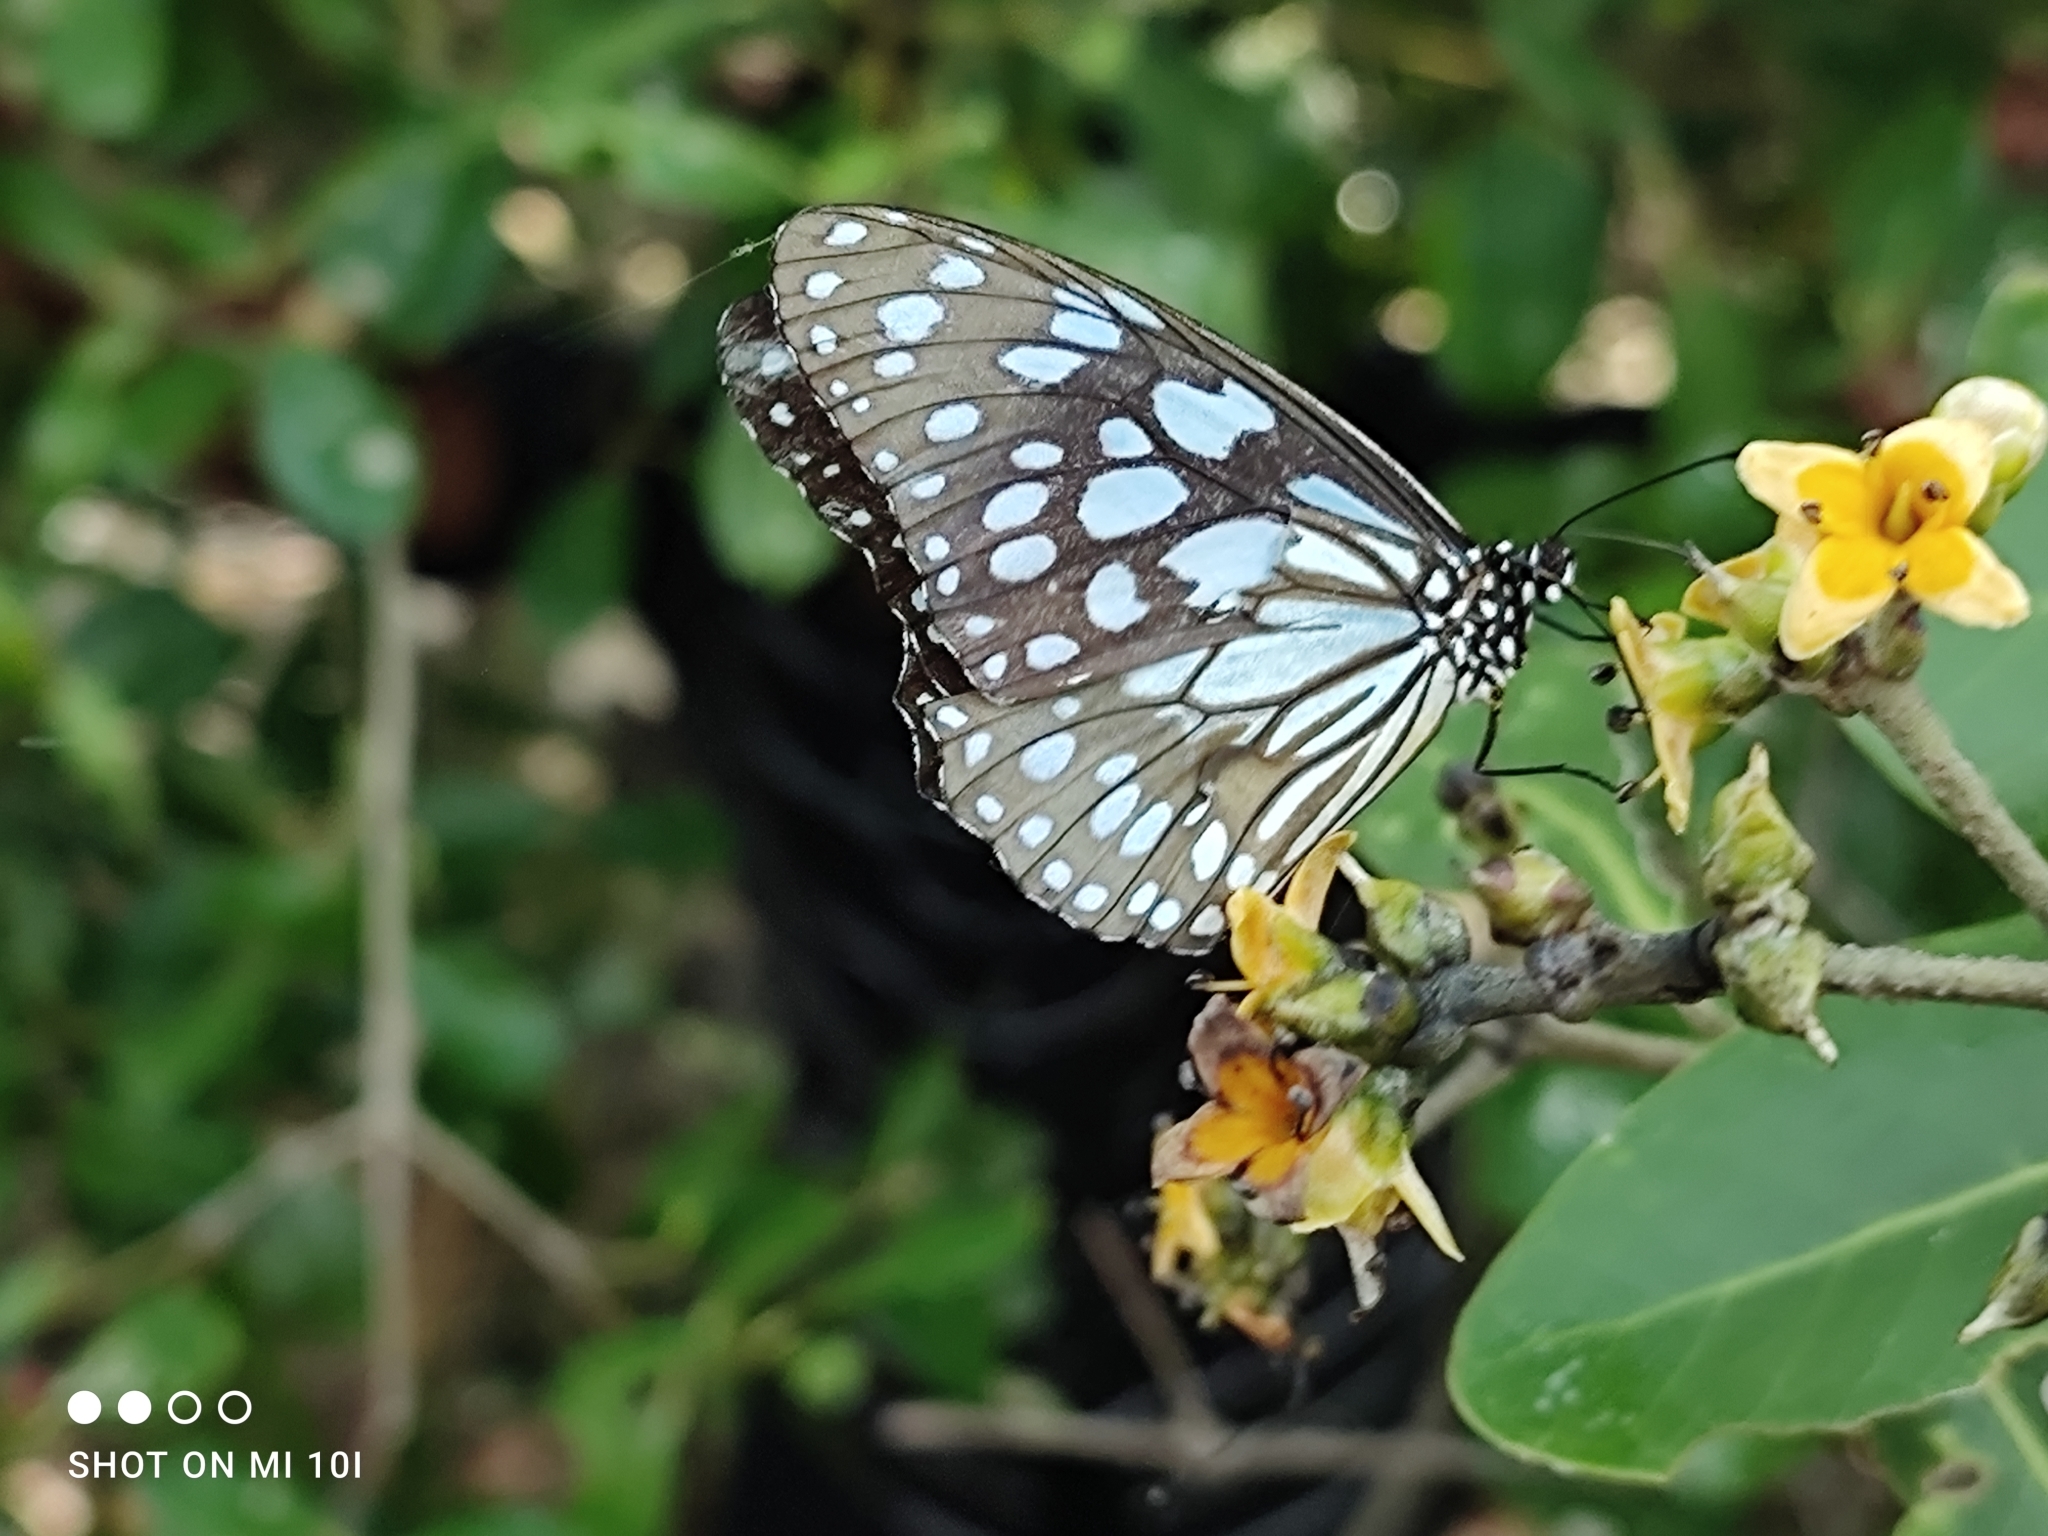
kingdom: Animalia
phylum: Arthropoda
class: Insecta
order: Lepidoptera
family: Nymphalidae
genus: Tirumala
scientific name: Tirumala limniace
